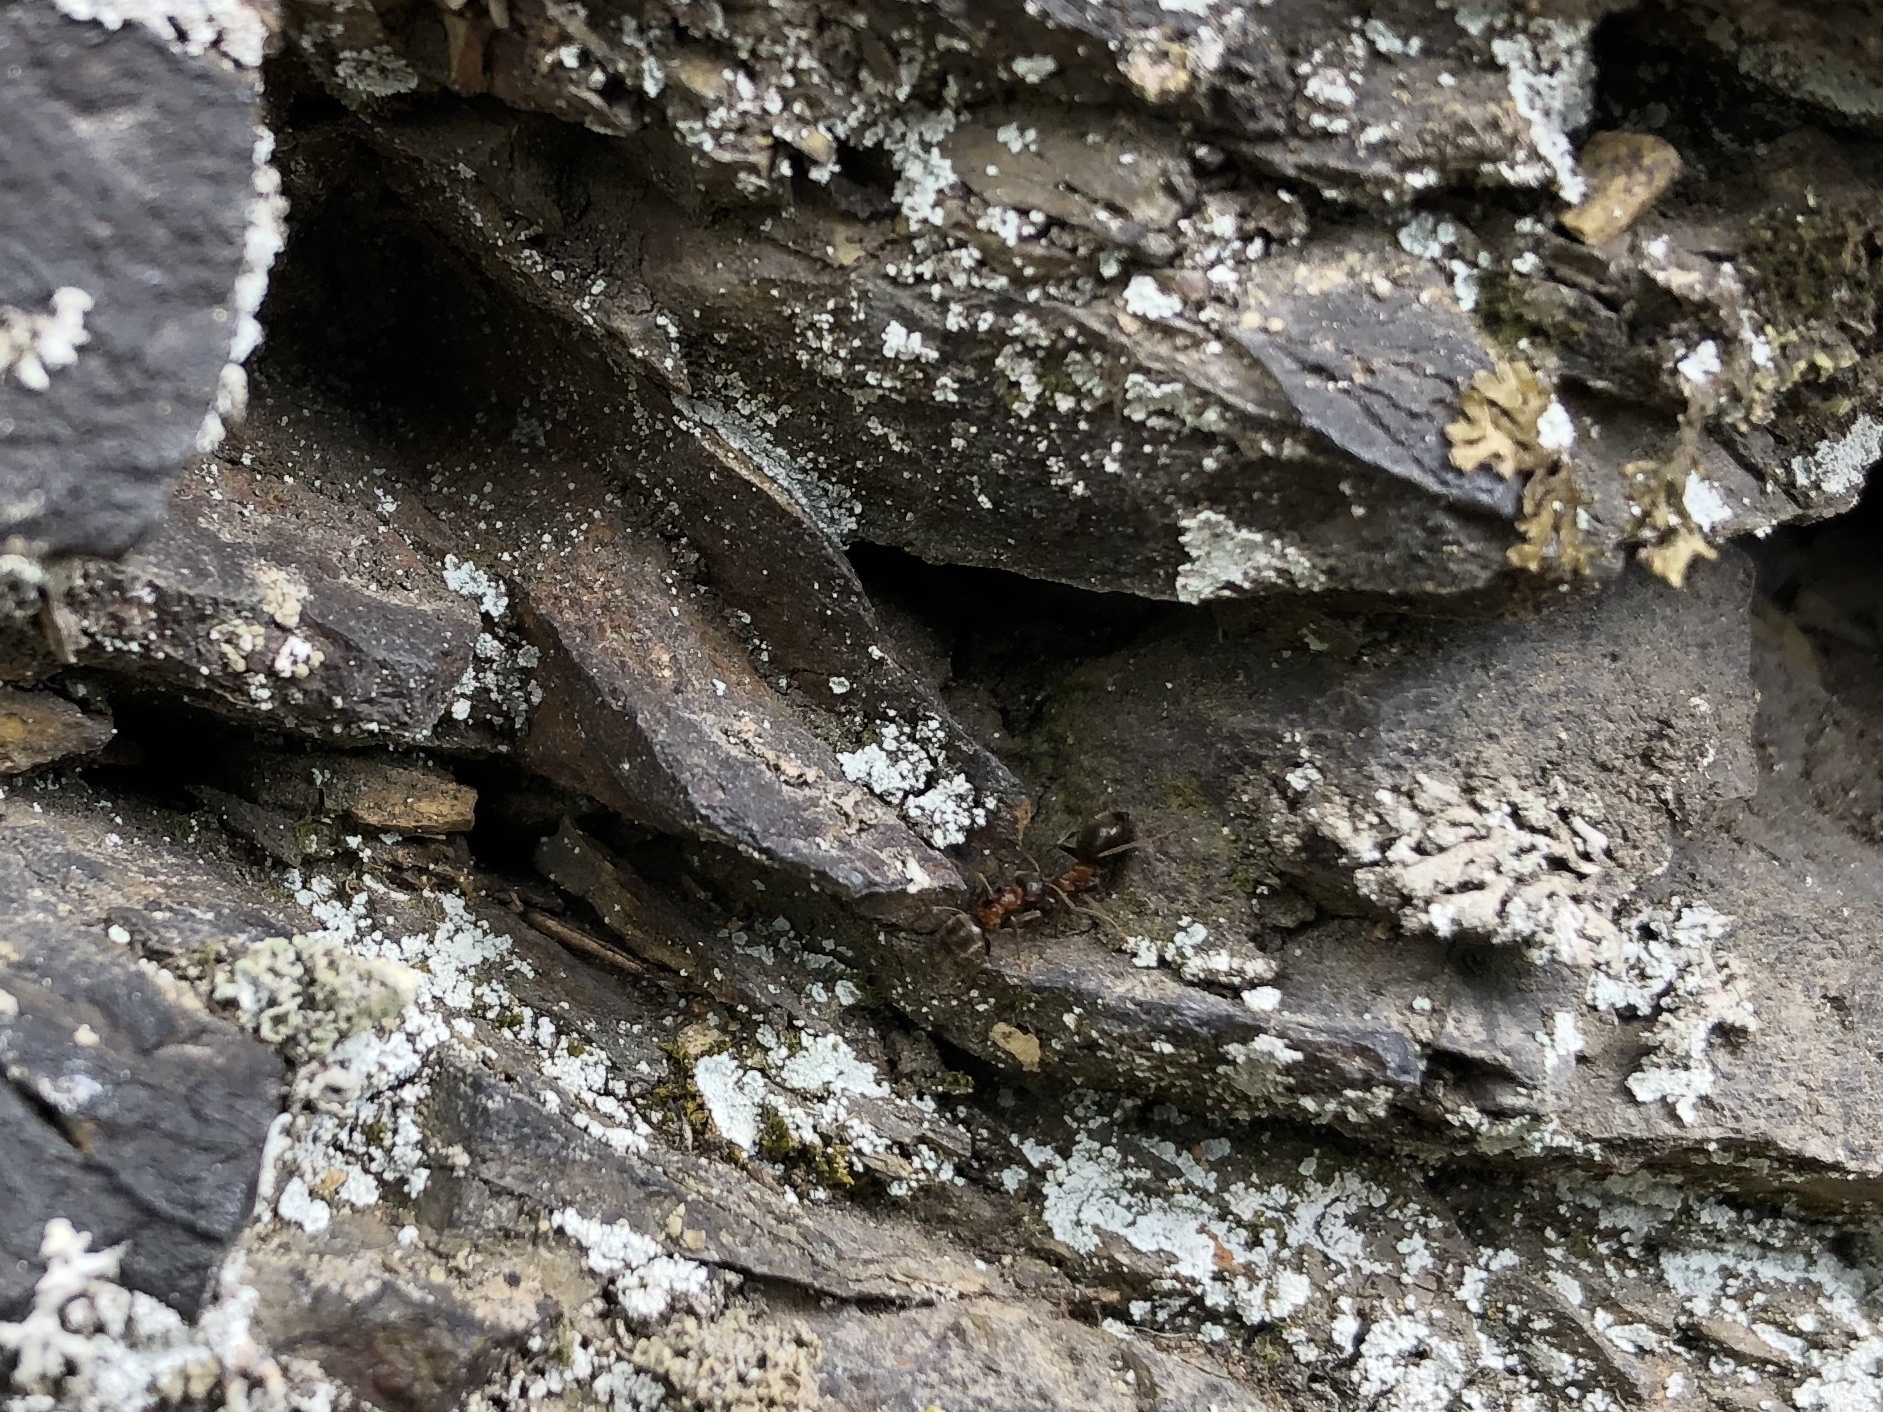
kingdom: Animalia
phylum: Arthropoda
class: Insecta
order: Hymenoptera
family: Formicidae
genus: Lasius
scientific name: Lasius emarginatus
